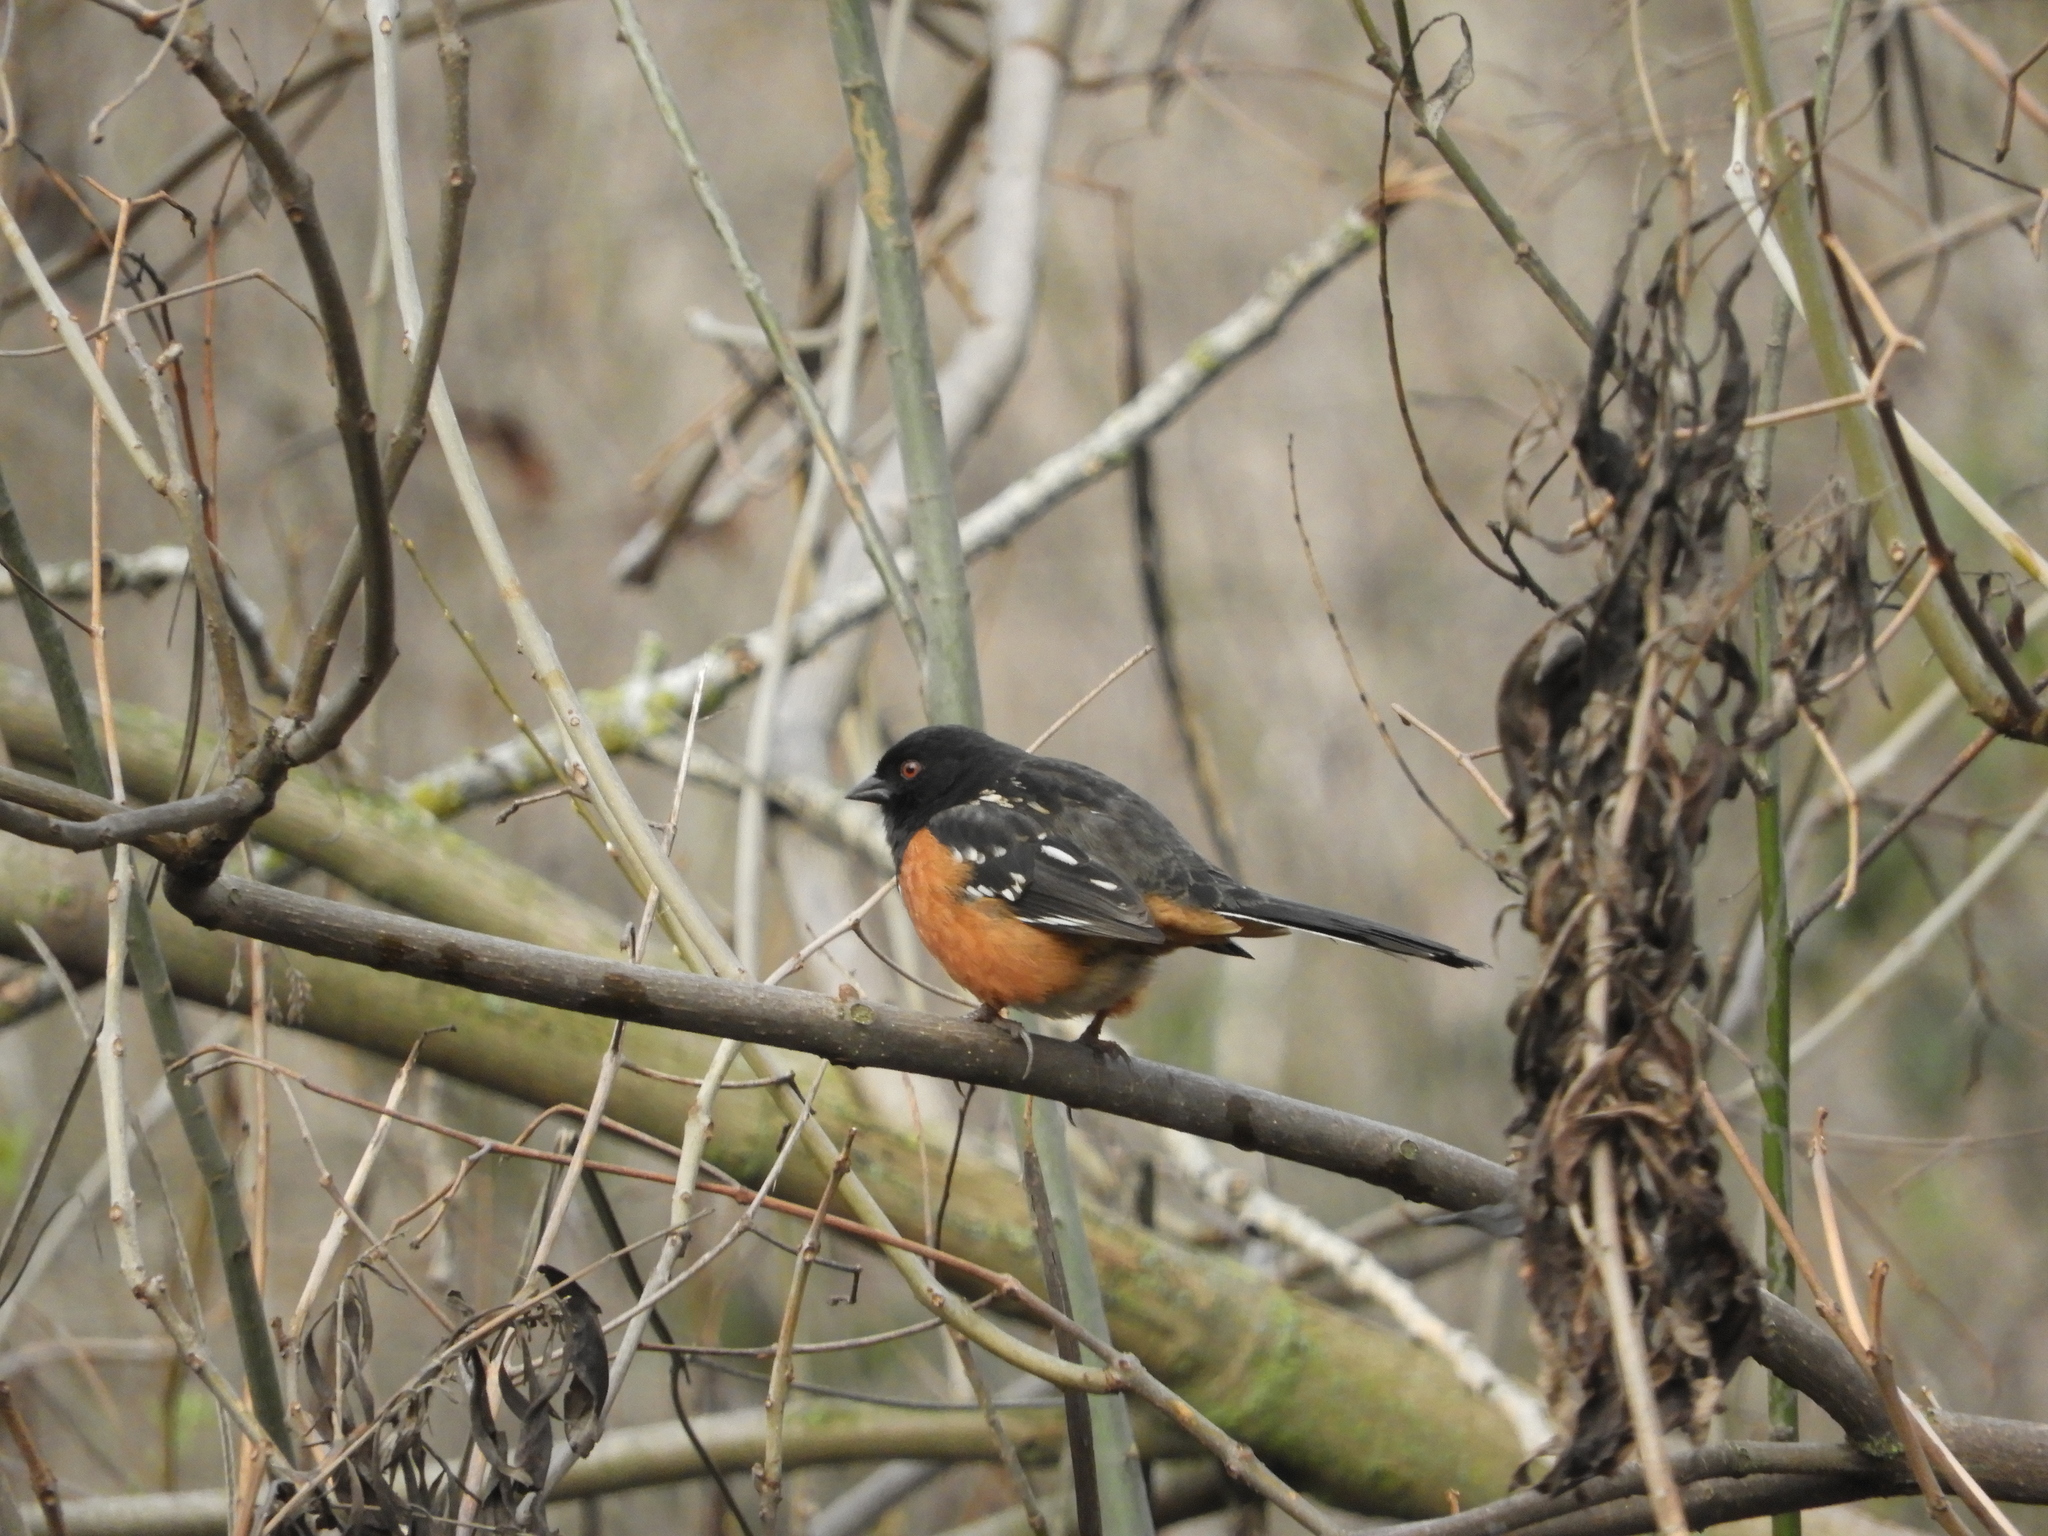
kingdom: Animalia
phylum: Chordata
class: Aves
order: Passeriformes
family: Passerellidae
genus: Pipilo
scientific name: Pipilo maculatus
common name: Spotted towhee
